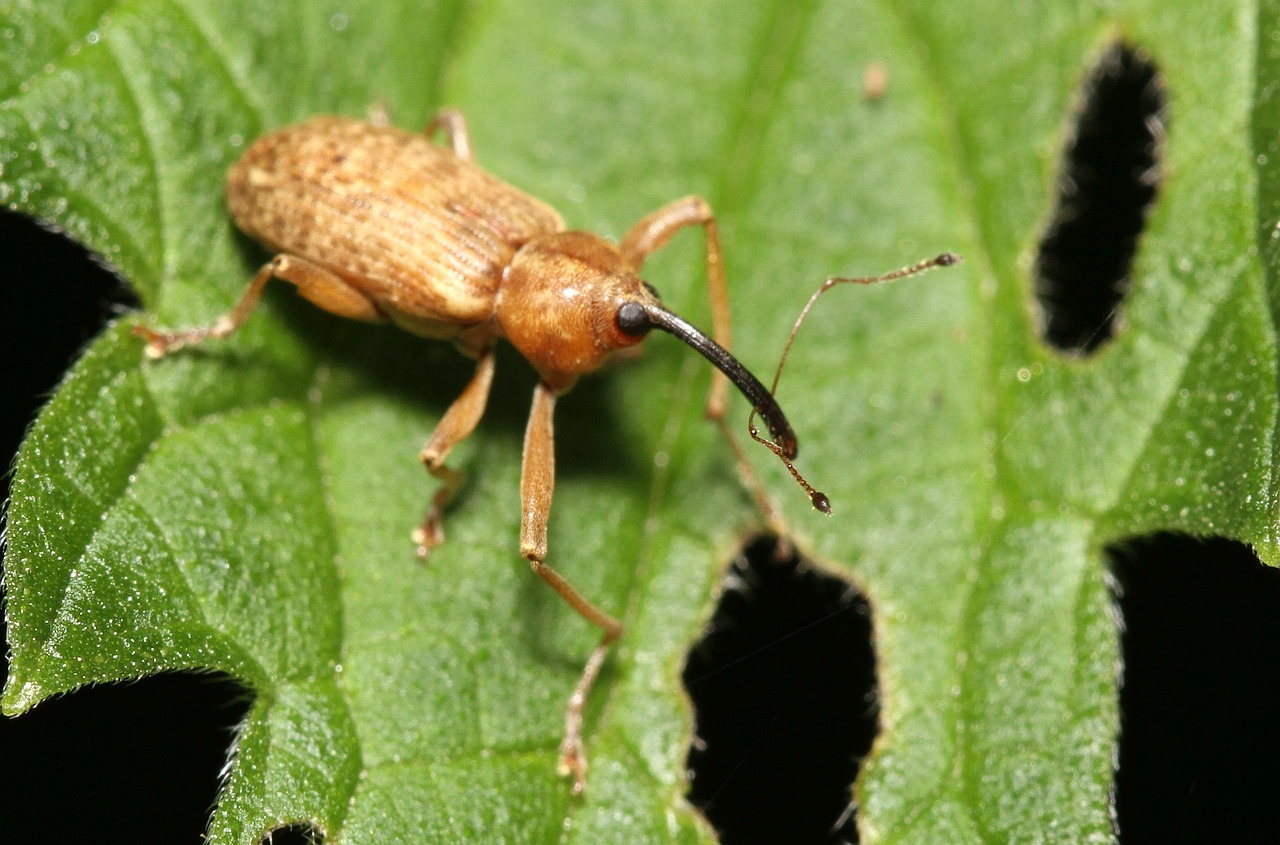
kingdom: Animalia
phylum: Arthropoda
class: Insecta
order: Coleoptera
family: Curculionidae
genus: Dorytomus
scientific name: Dorytomus longimanus
